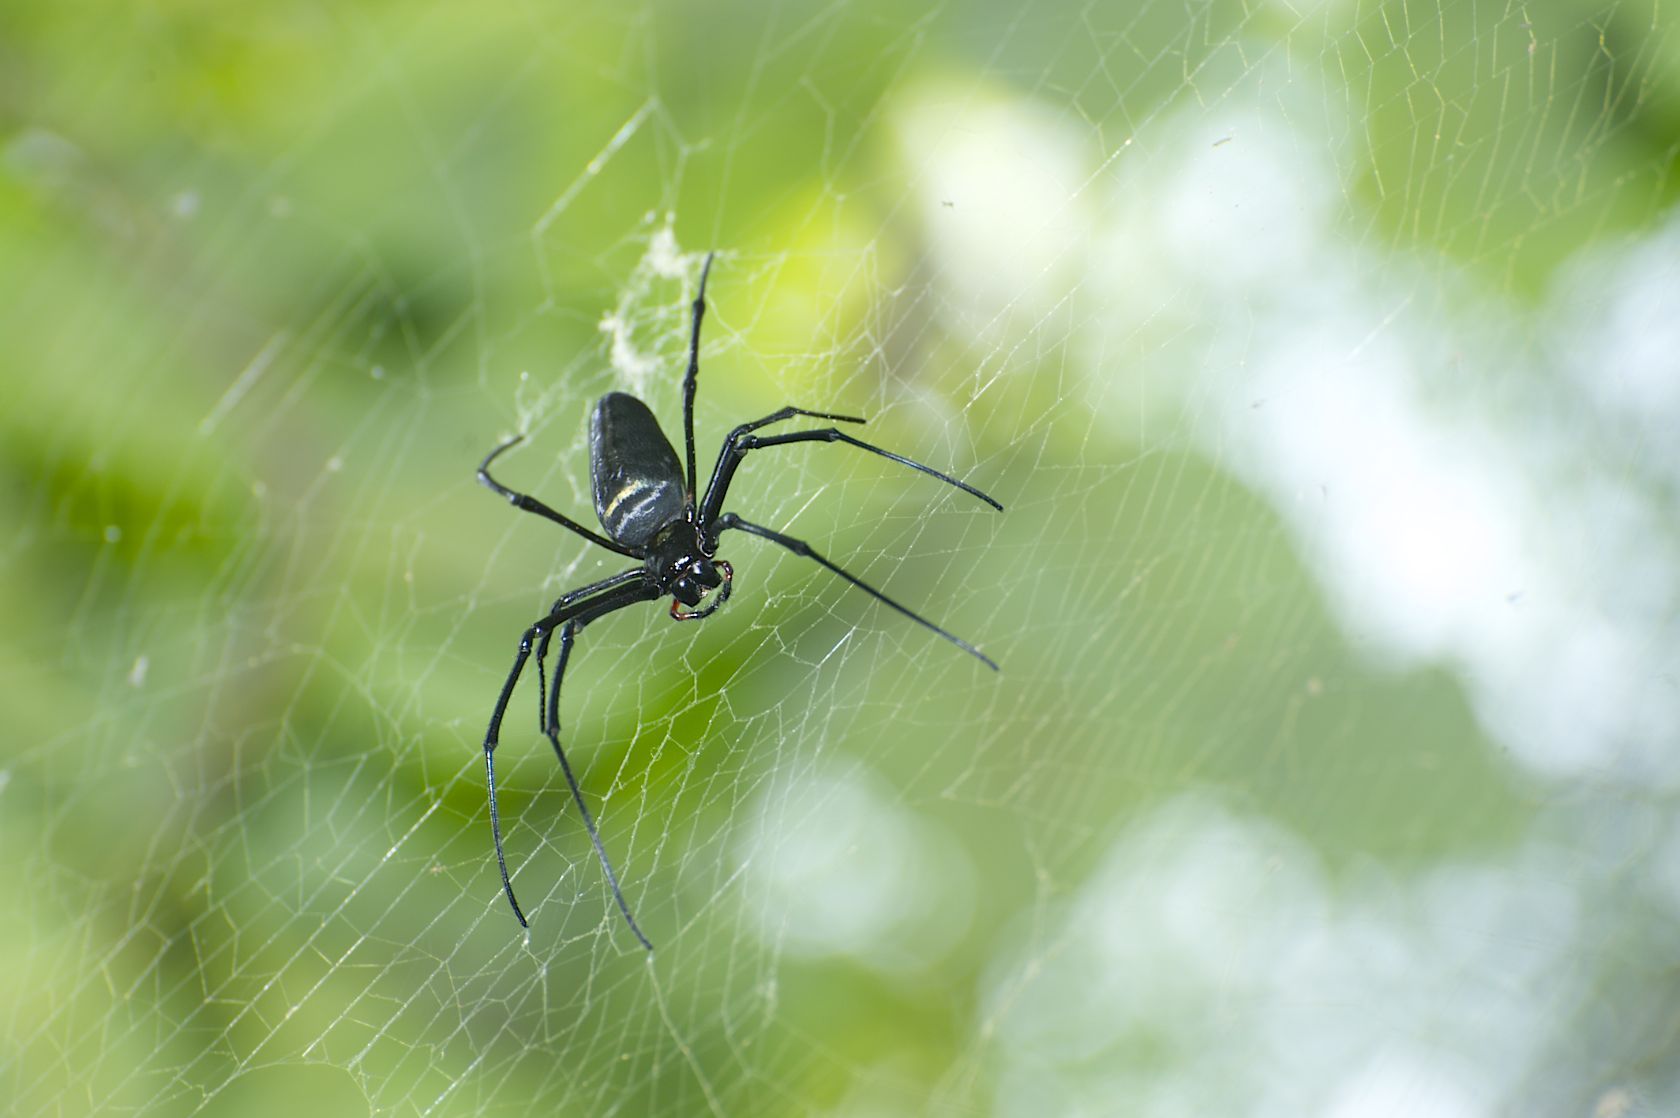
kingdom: Animalia
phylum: Arthropoda
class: Arachnida
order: Araneae
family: Araneidae
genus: Nephila
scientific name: Nephila pilipes
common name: Giant golden orb weaver
